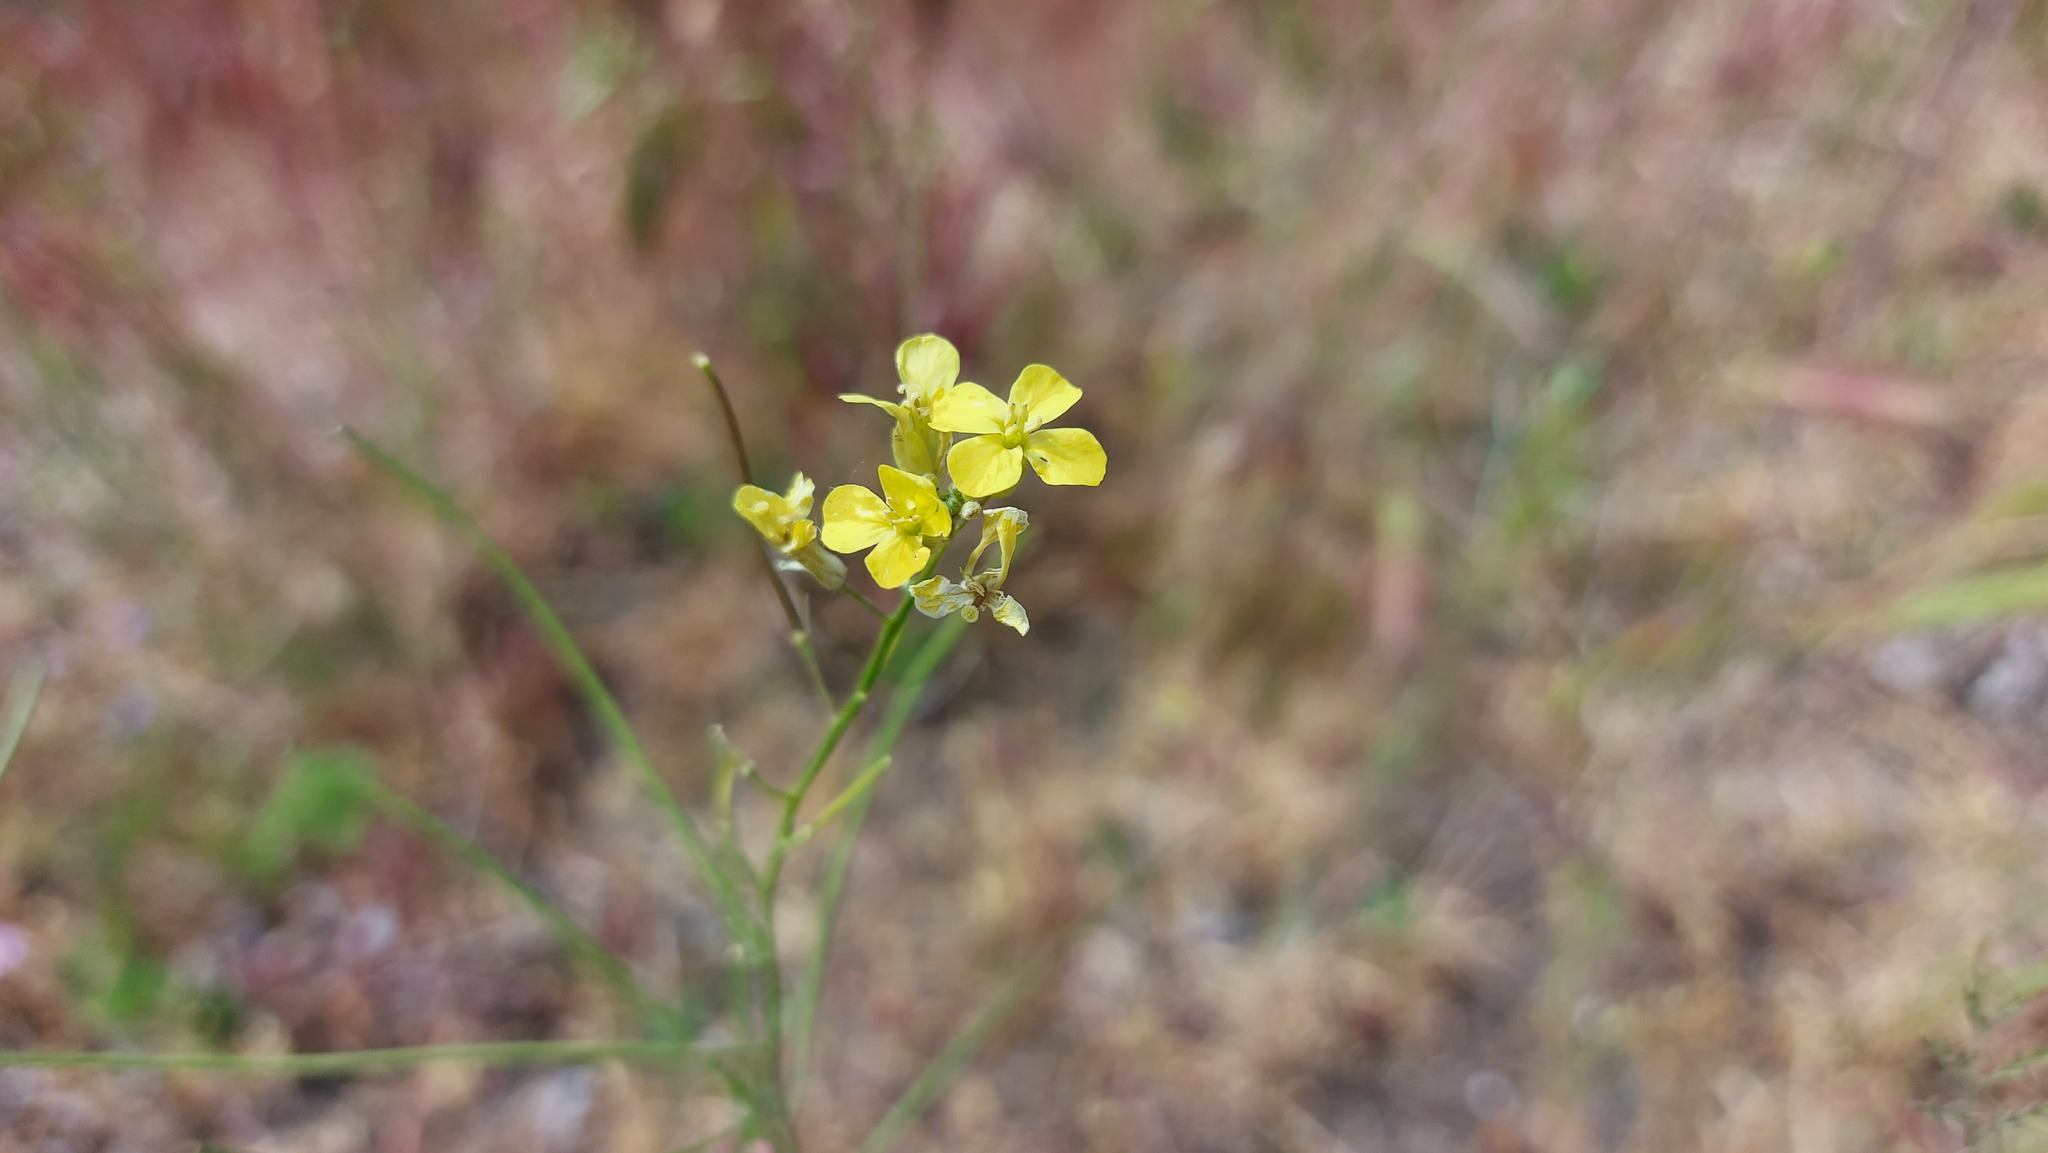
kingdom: Plantae
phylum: Tracheophyta
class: Magnoliopsida
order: Brassicales
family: Brassicaceae
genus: Sisymbrium
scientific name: Sisymbrium orientale
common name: Eastern rocket
